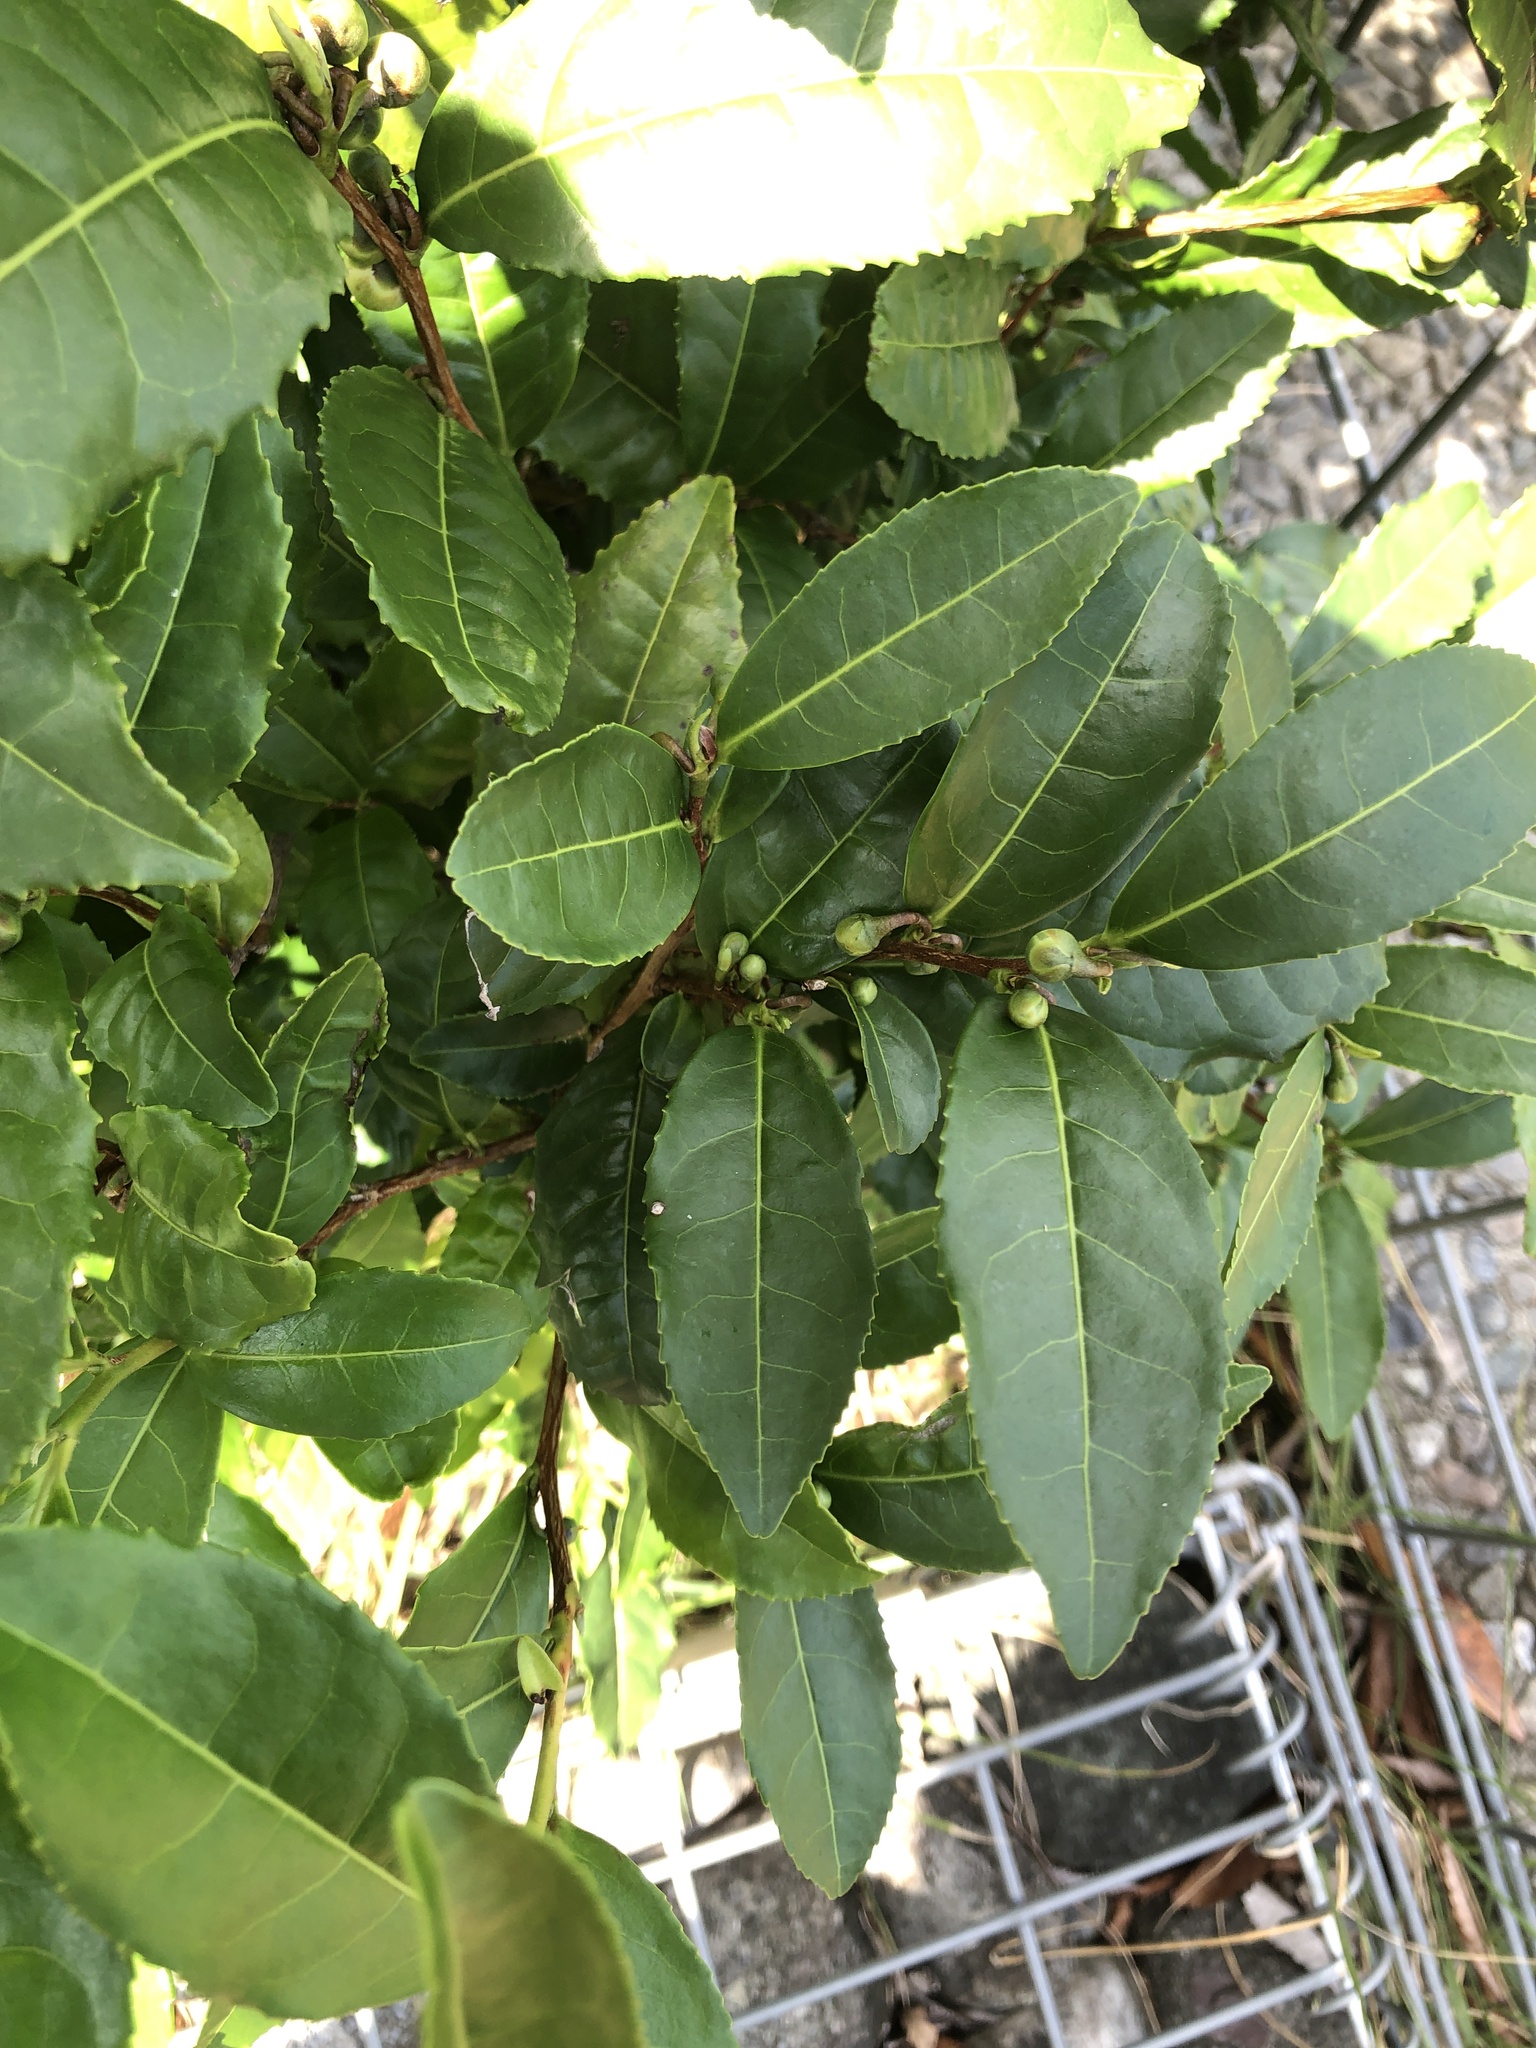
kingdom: Plantae
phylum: Tracheophyta
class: Magnoliopsida
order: Ericales
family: Theaceae
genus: Camellia
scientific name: Camellia sinensis
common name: Tea
